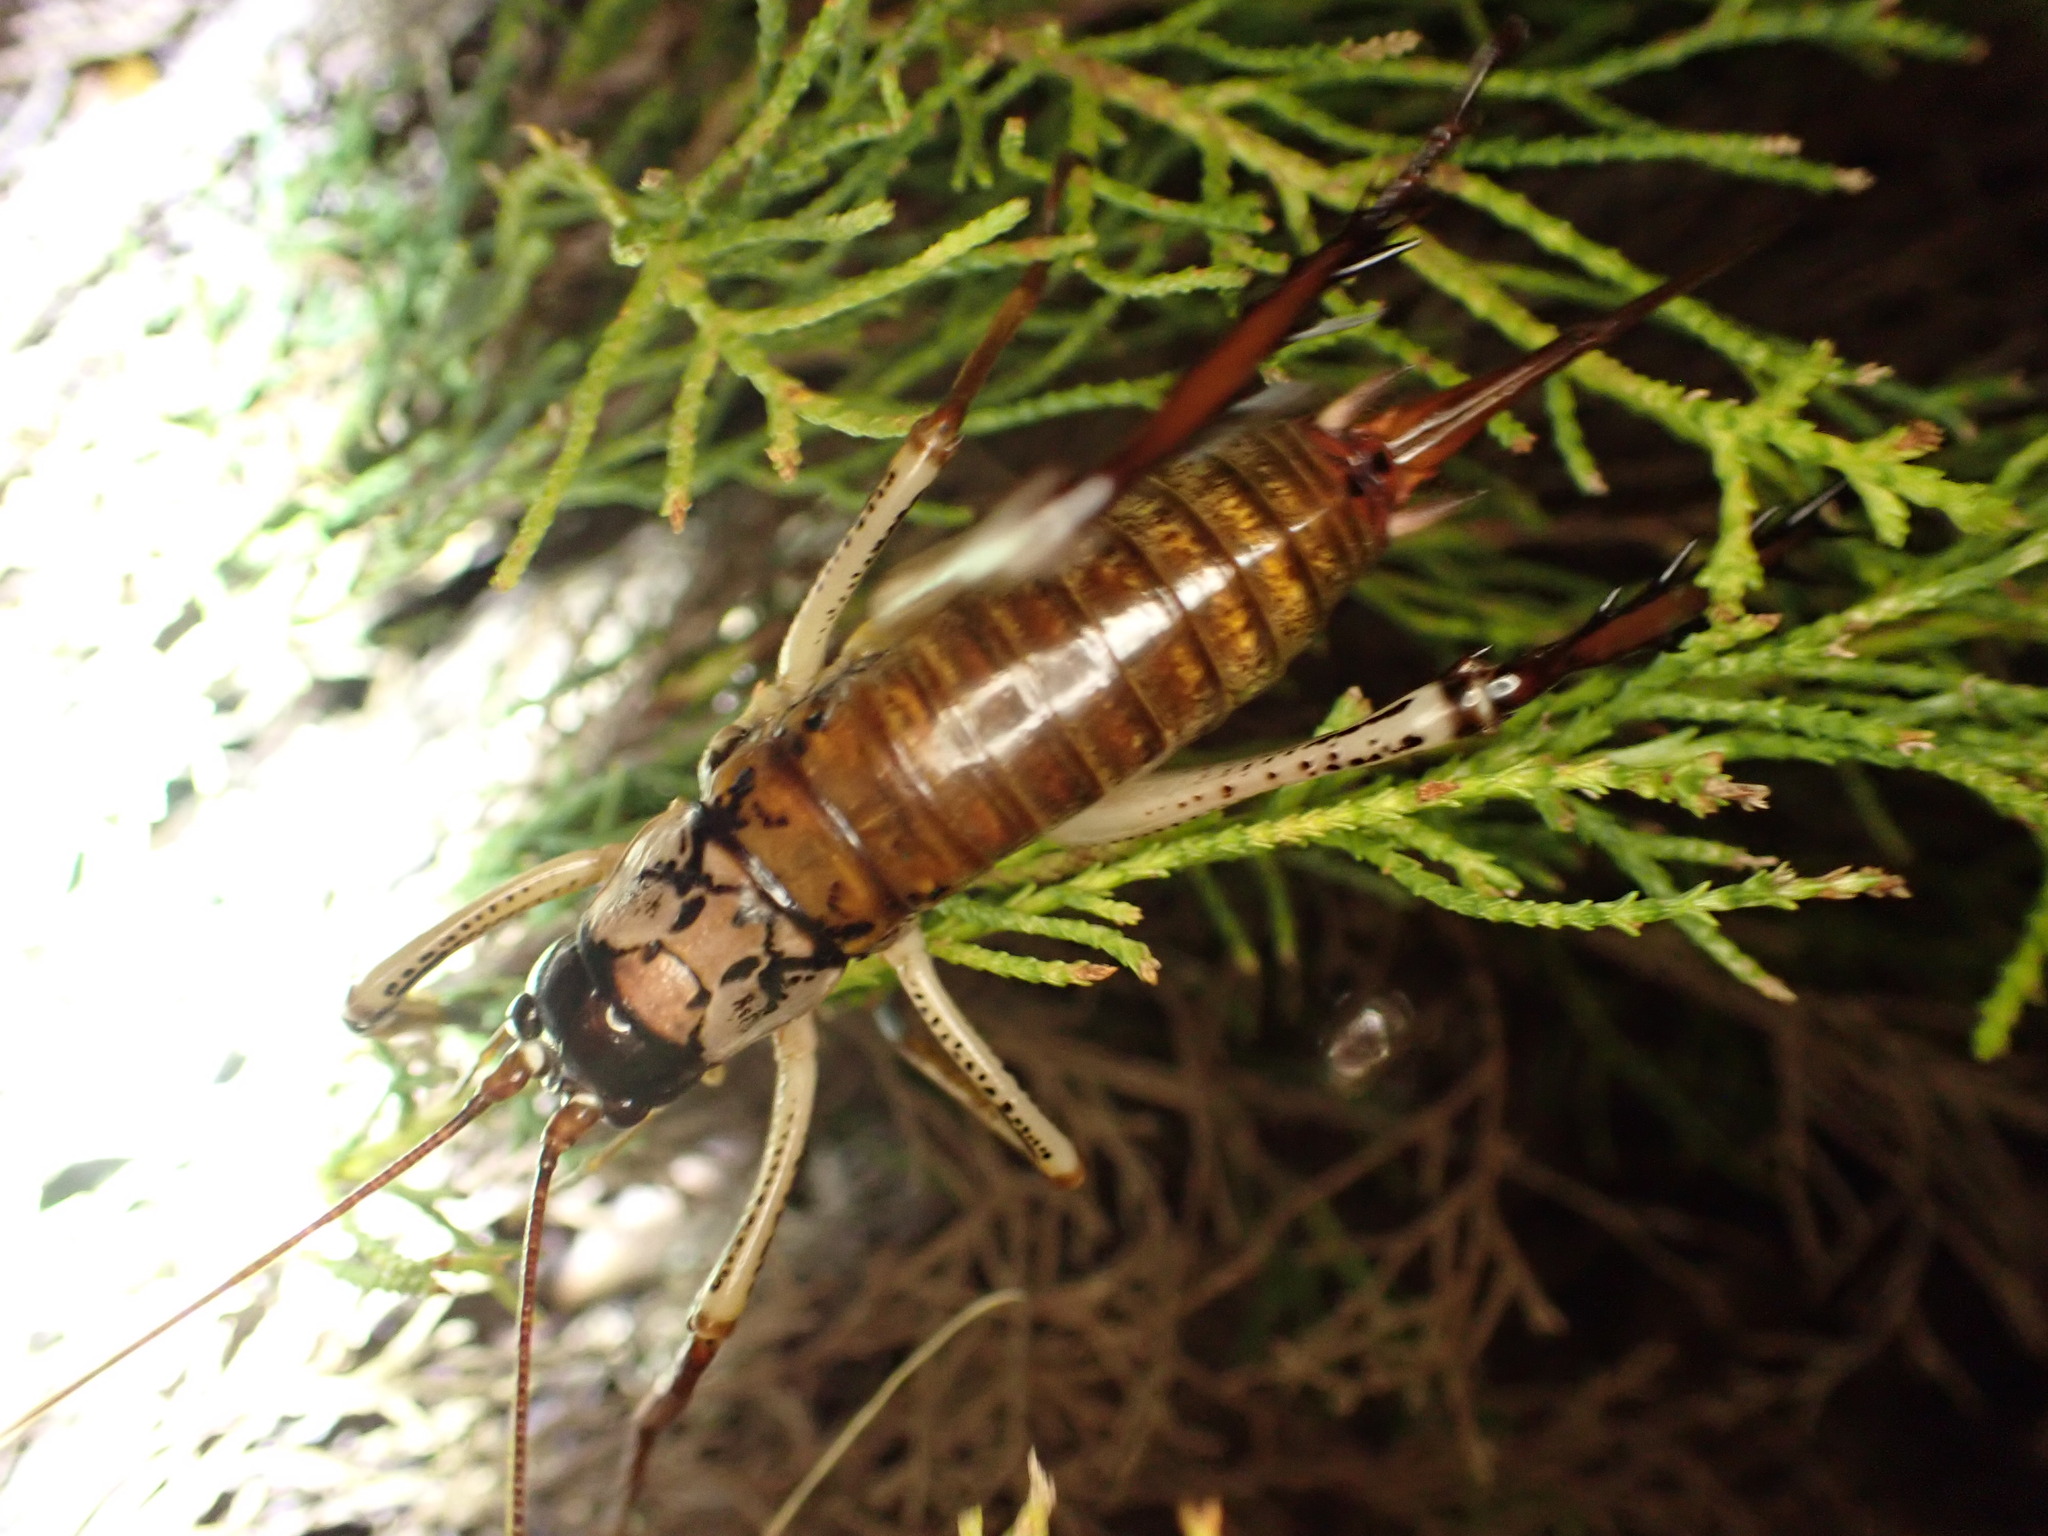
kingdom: Animalia
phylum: Arthropoda
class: Insecta
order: Orthoptera
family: Anostostomatidae
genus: Hemideina
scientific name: Hemideina thoracica
